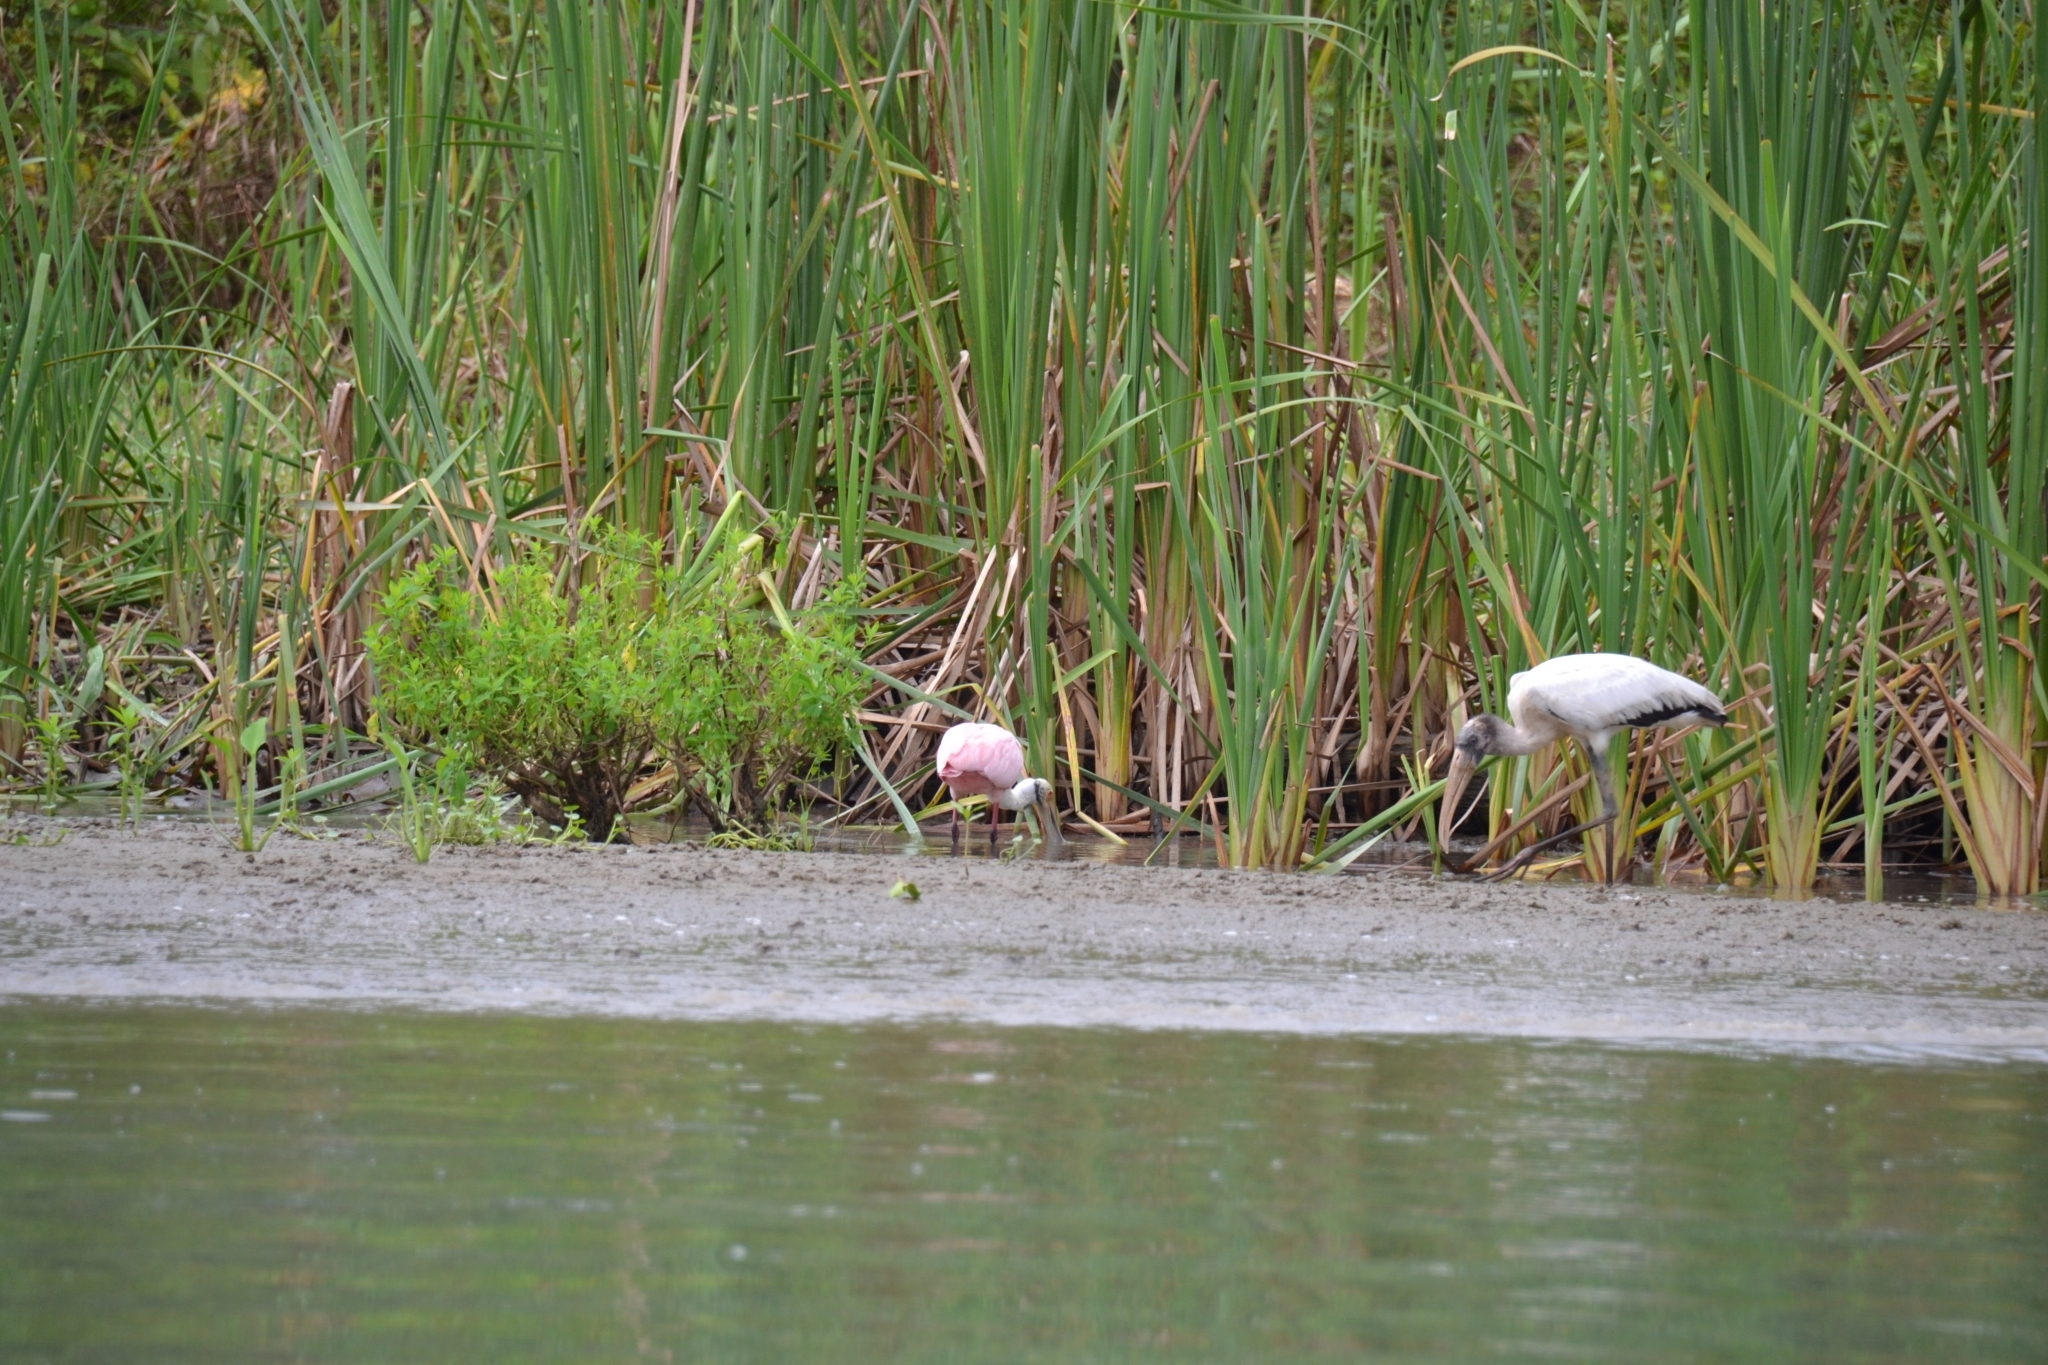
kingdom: Animalia
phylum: Chordata
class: Aves
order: Ciconiiformes
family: Ciconiidae
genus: Mycteria
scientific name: Mycteria americana
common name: Wood stork
